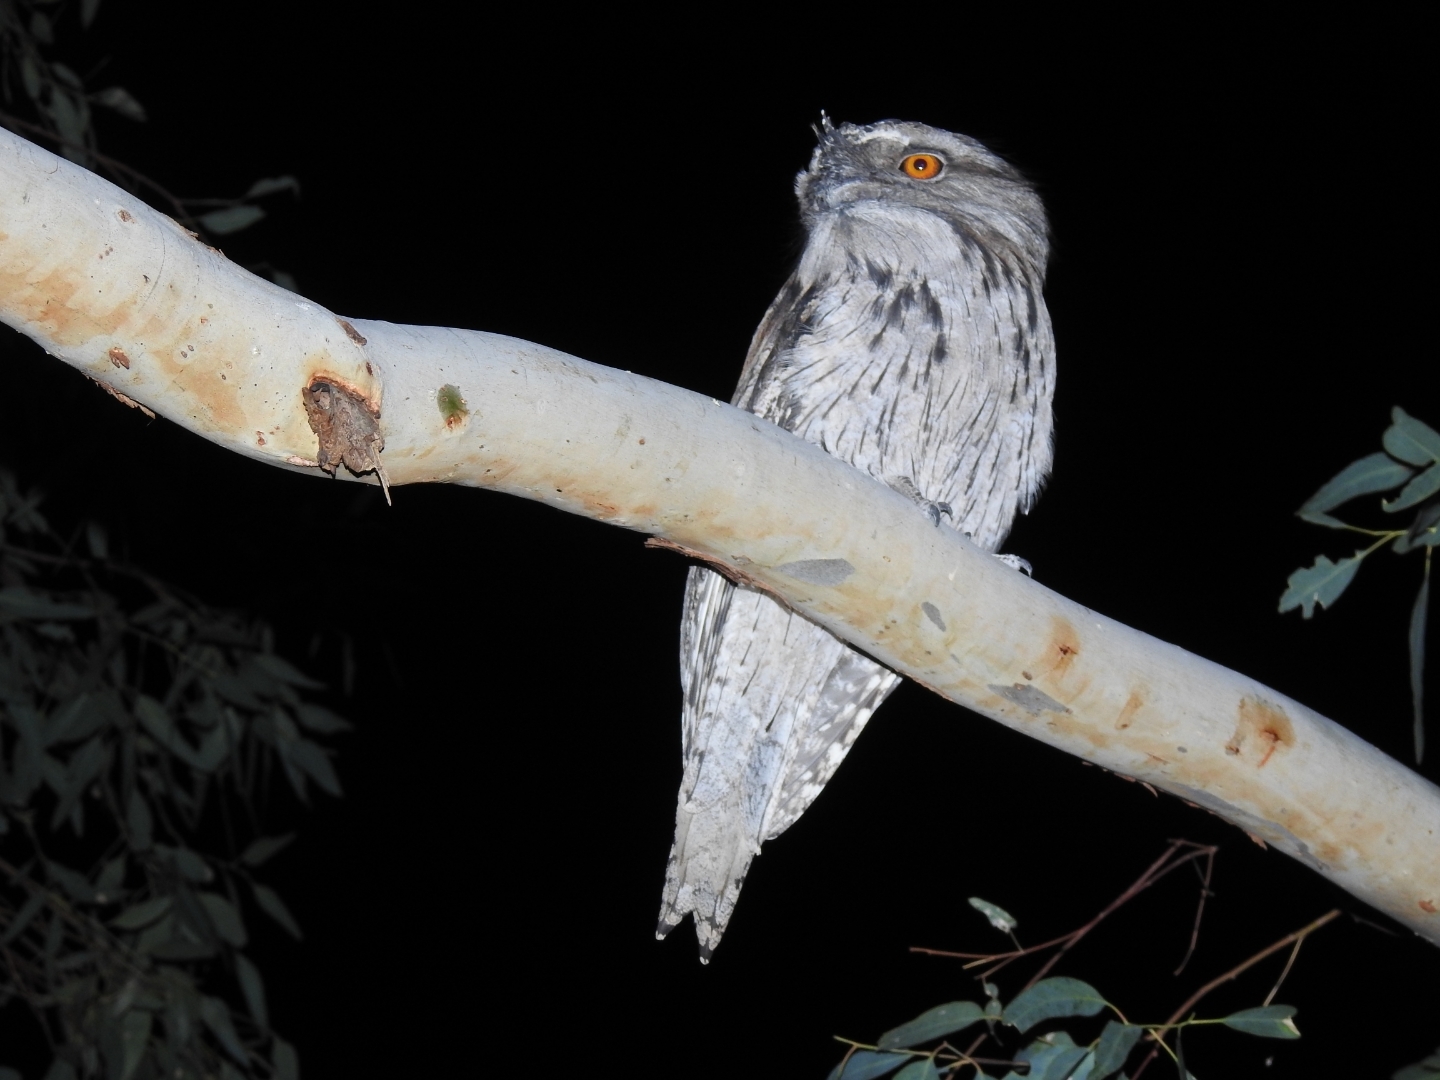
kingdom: Animalia
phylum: Chordata
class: Aves
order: Caprimulgiformes
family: Podargidae
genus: Podargus
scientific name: Podargus strigoides
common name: Tawny frogmouth
